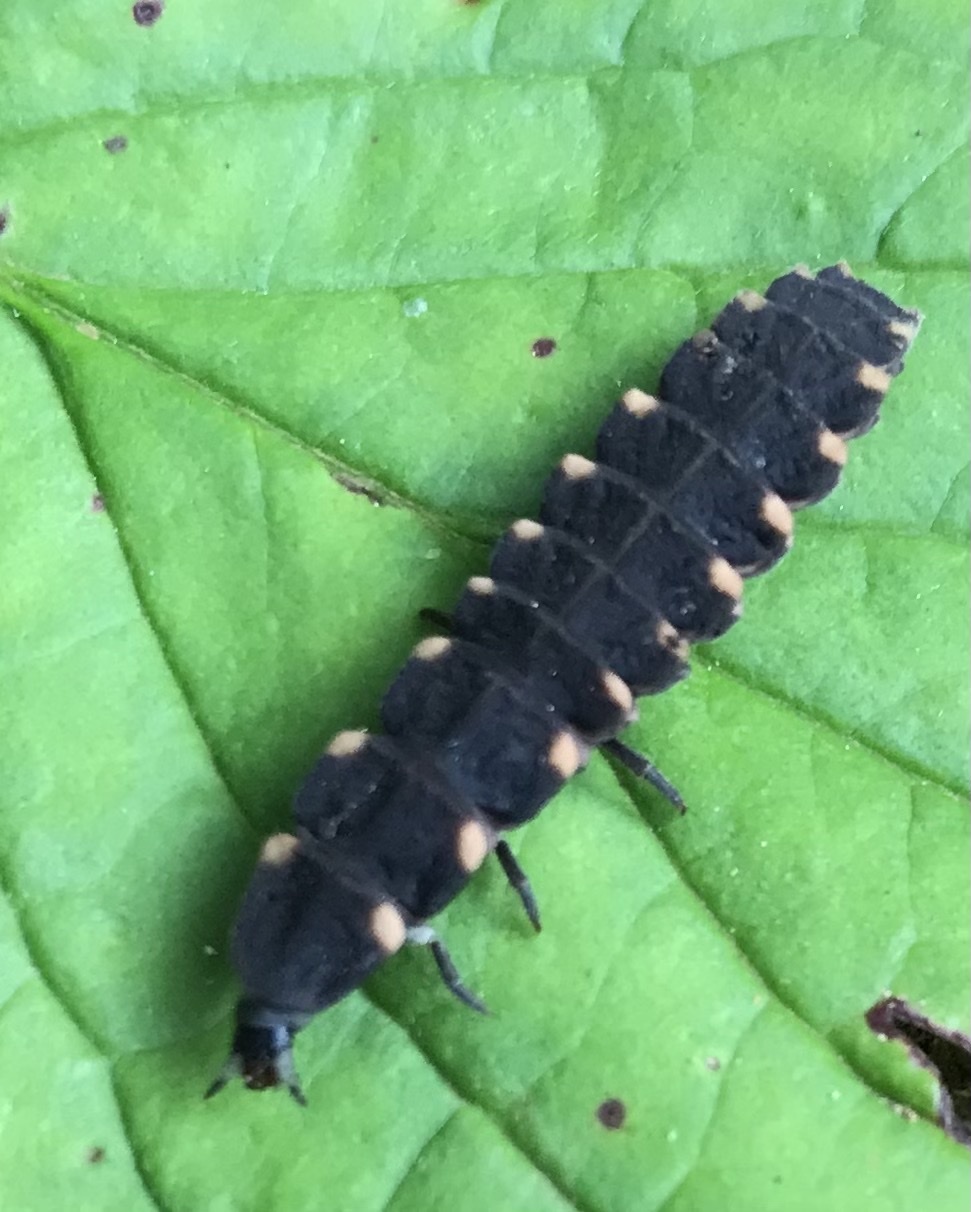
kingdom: Animalia
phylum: Arthropoda
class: Insecta
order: Coleoptera
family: Lampyridae
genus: Lampyris
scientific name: Lampyris noctiluca
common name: Glow-worm
